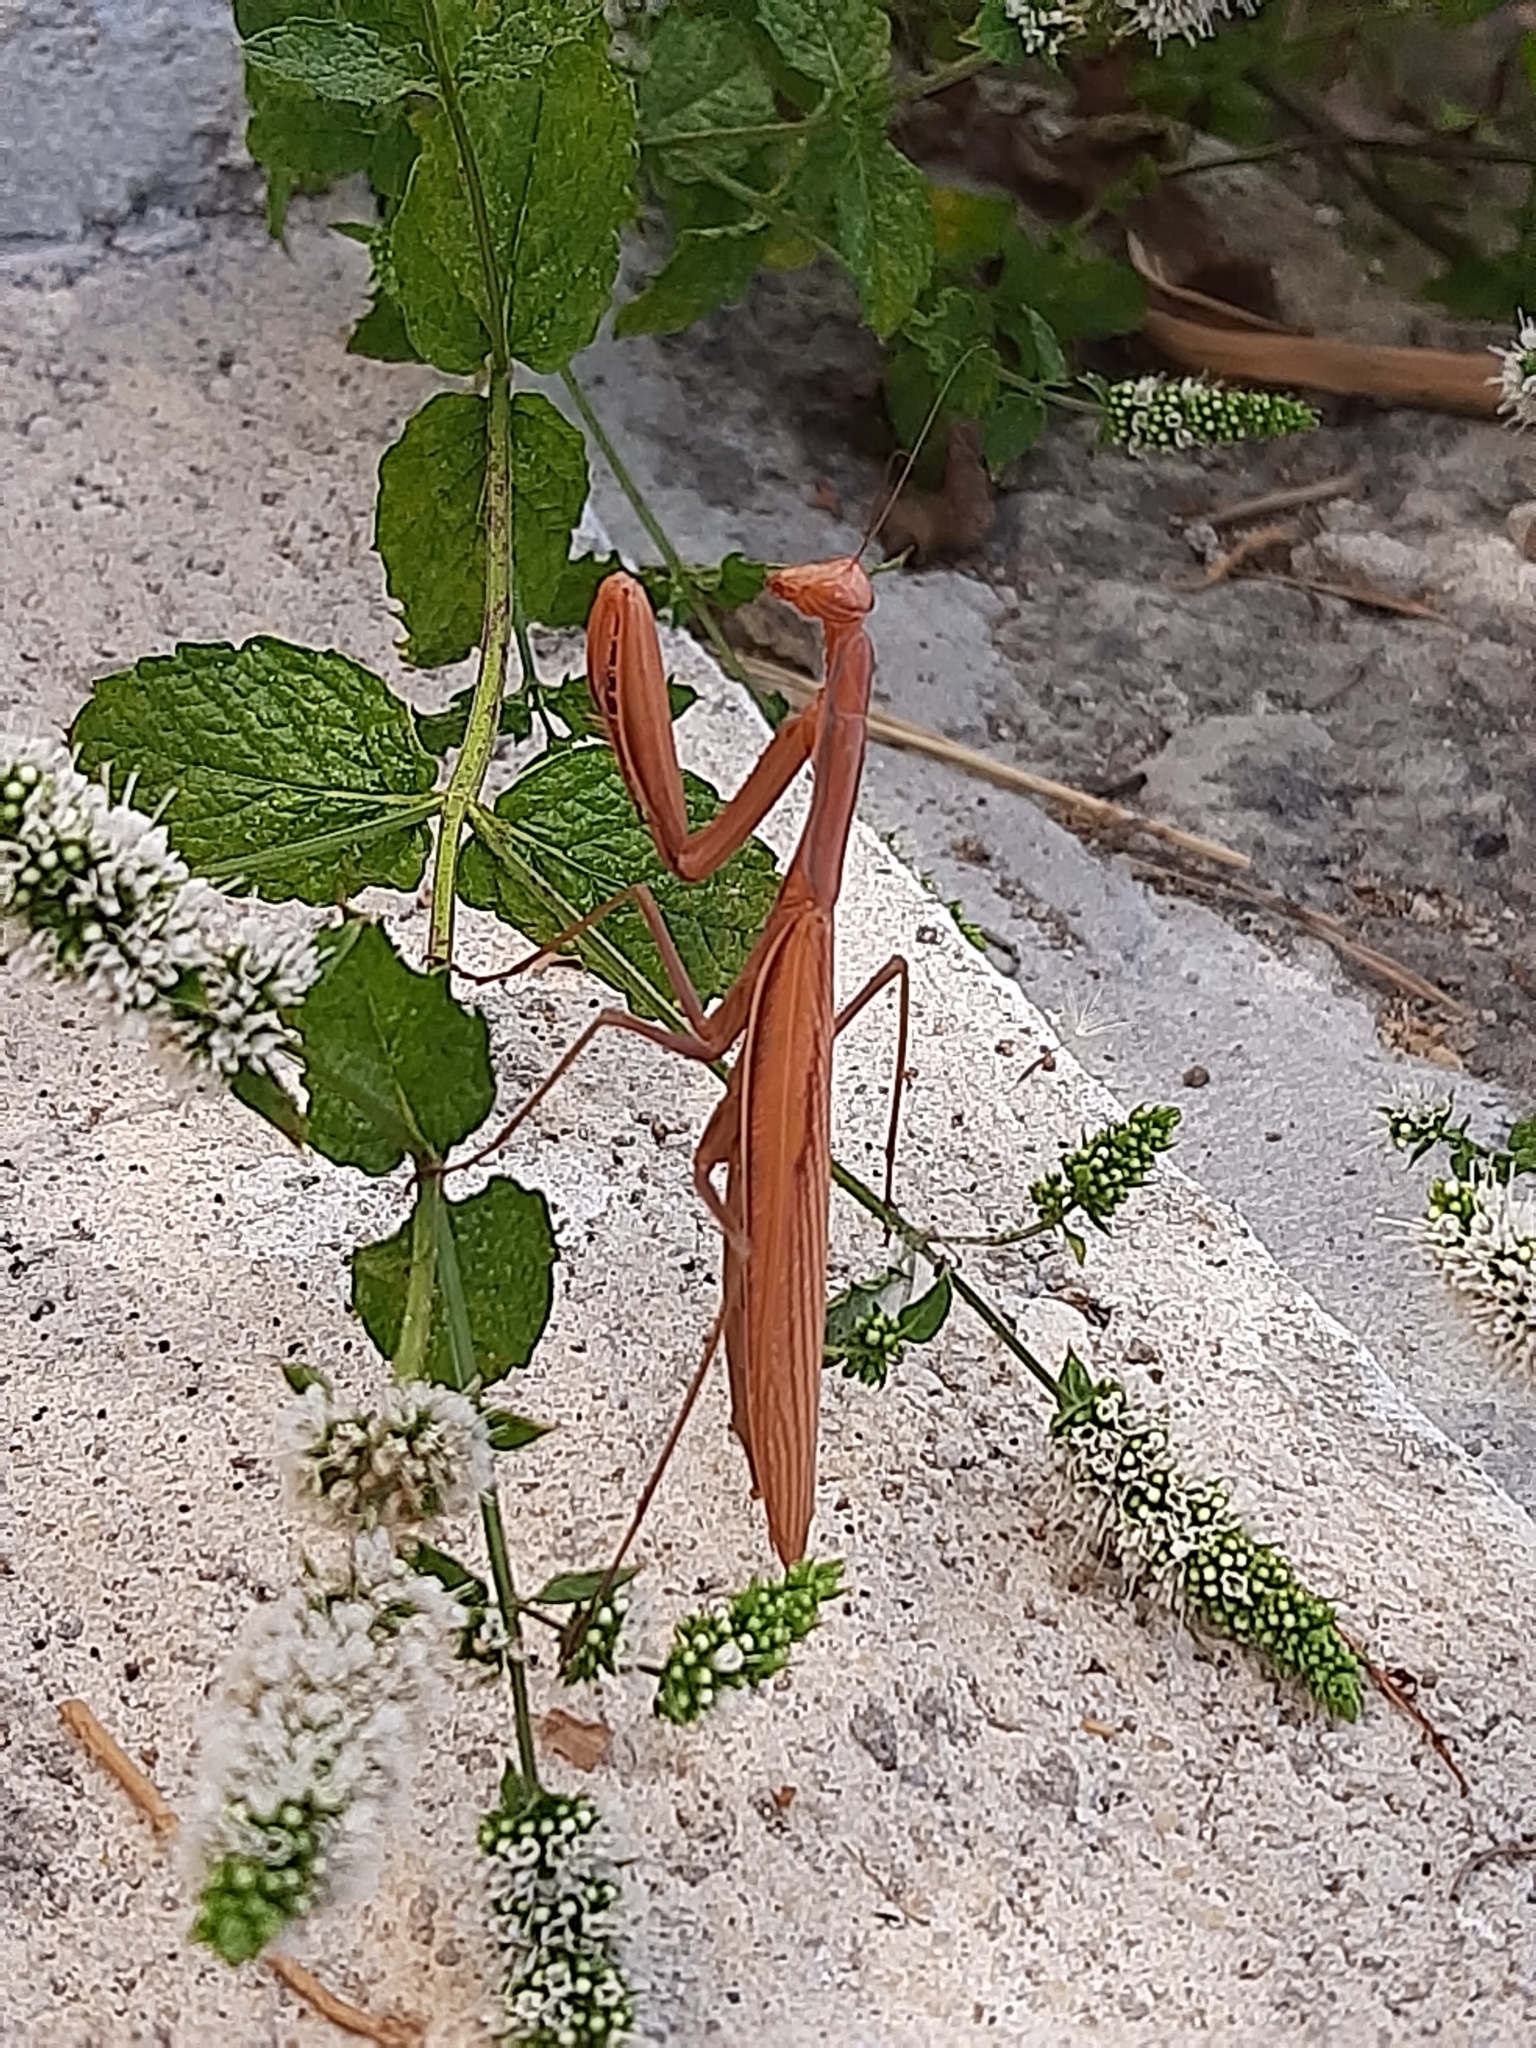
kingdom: Animalia
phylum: Arthropoda
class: Insecta
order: Mantodea
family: Mantidae
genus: Mantis
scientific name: Mantis religiosa
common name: Praying mantis
